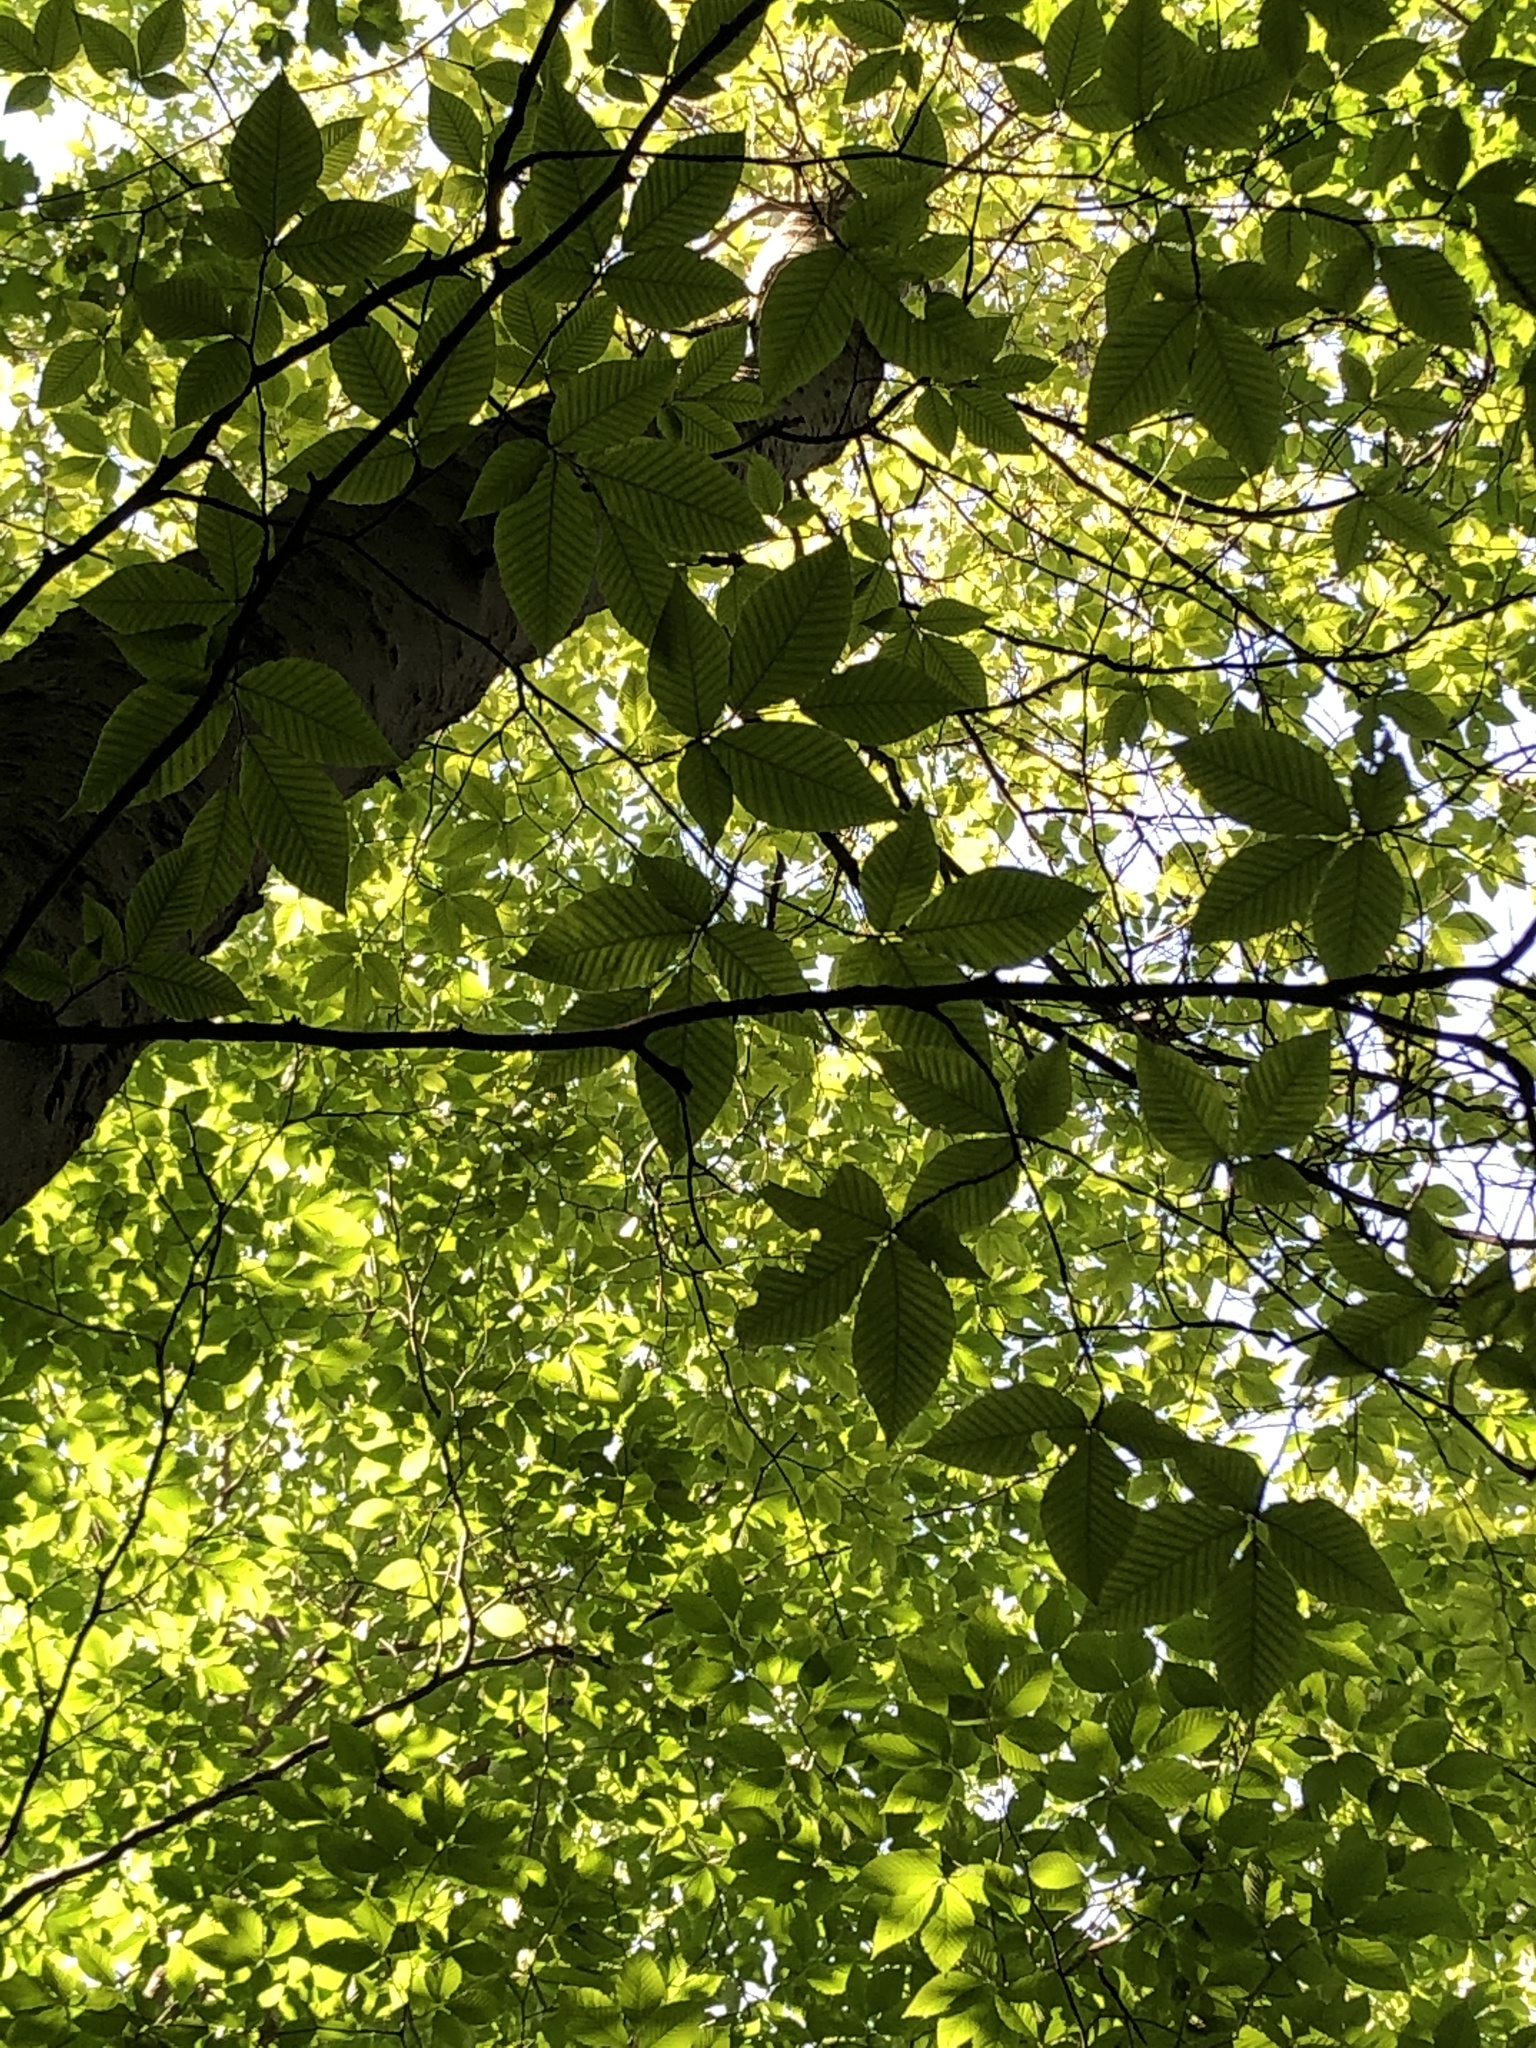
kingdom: Plantae
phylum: Tracheophyta
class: Magnoliopsida
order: Fagales
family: Fagaceae
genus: Fagus
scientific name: Fagus grandifolia
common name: American beech
